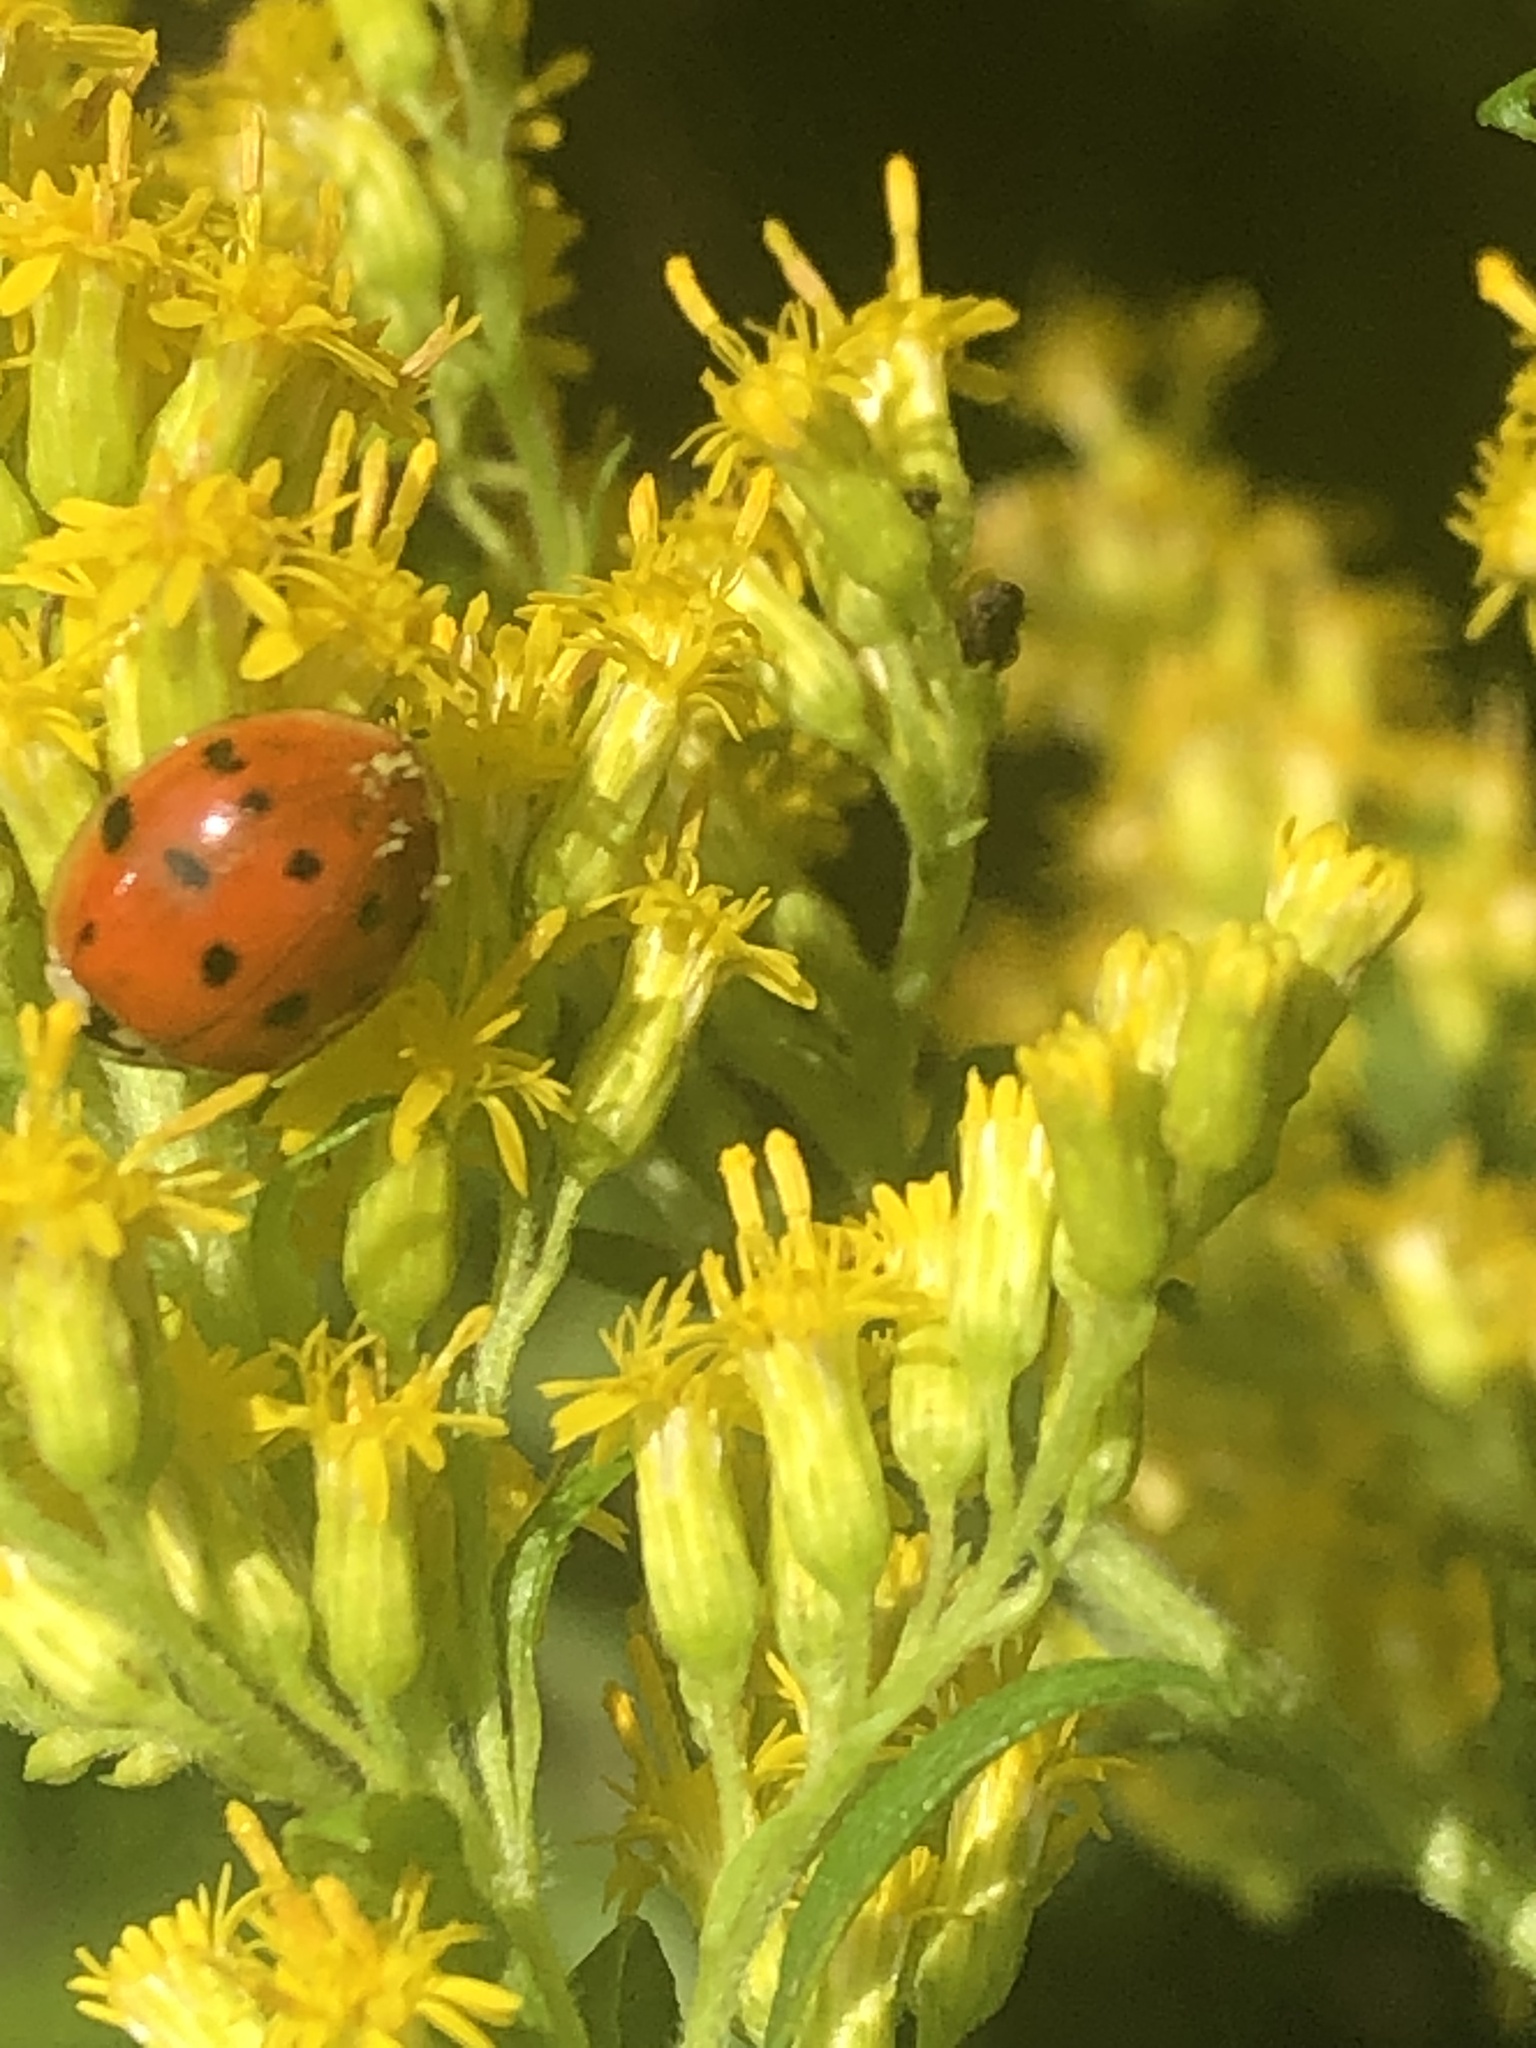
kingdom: Animalia
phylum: Arthropoda
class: Insecta
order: Coleoptera
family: Coccinellidae
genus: Harmonia
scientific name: Harmonia axyridis
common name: Harlequin ladybird
